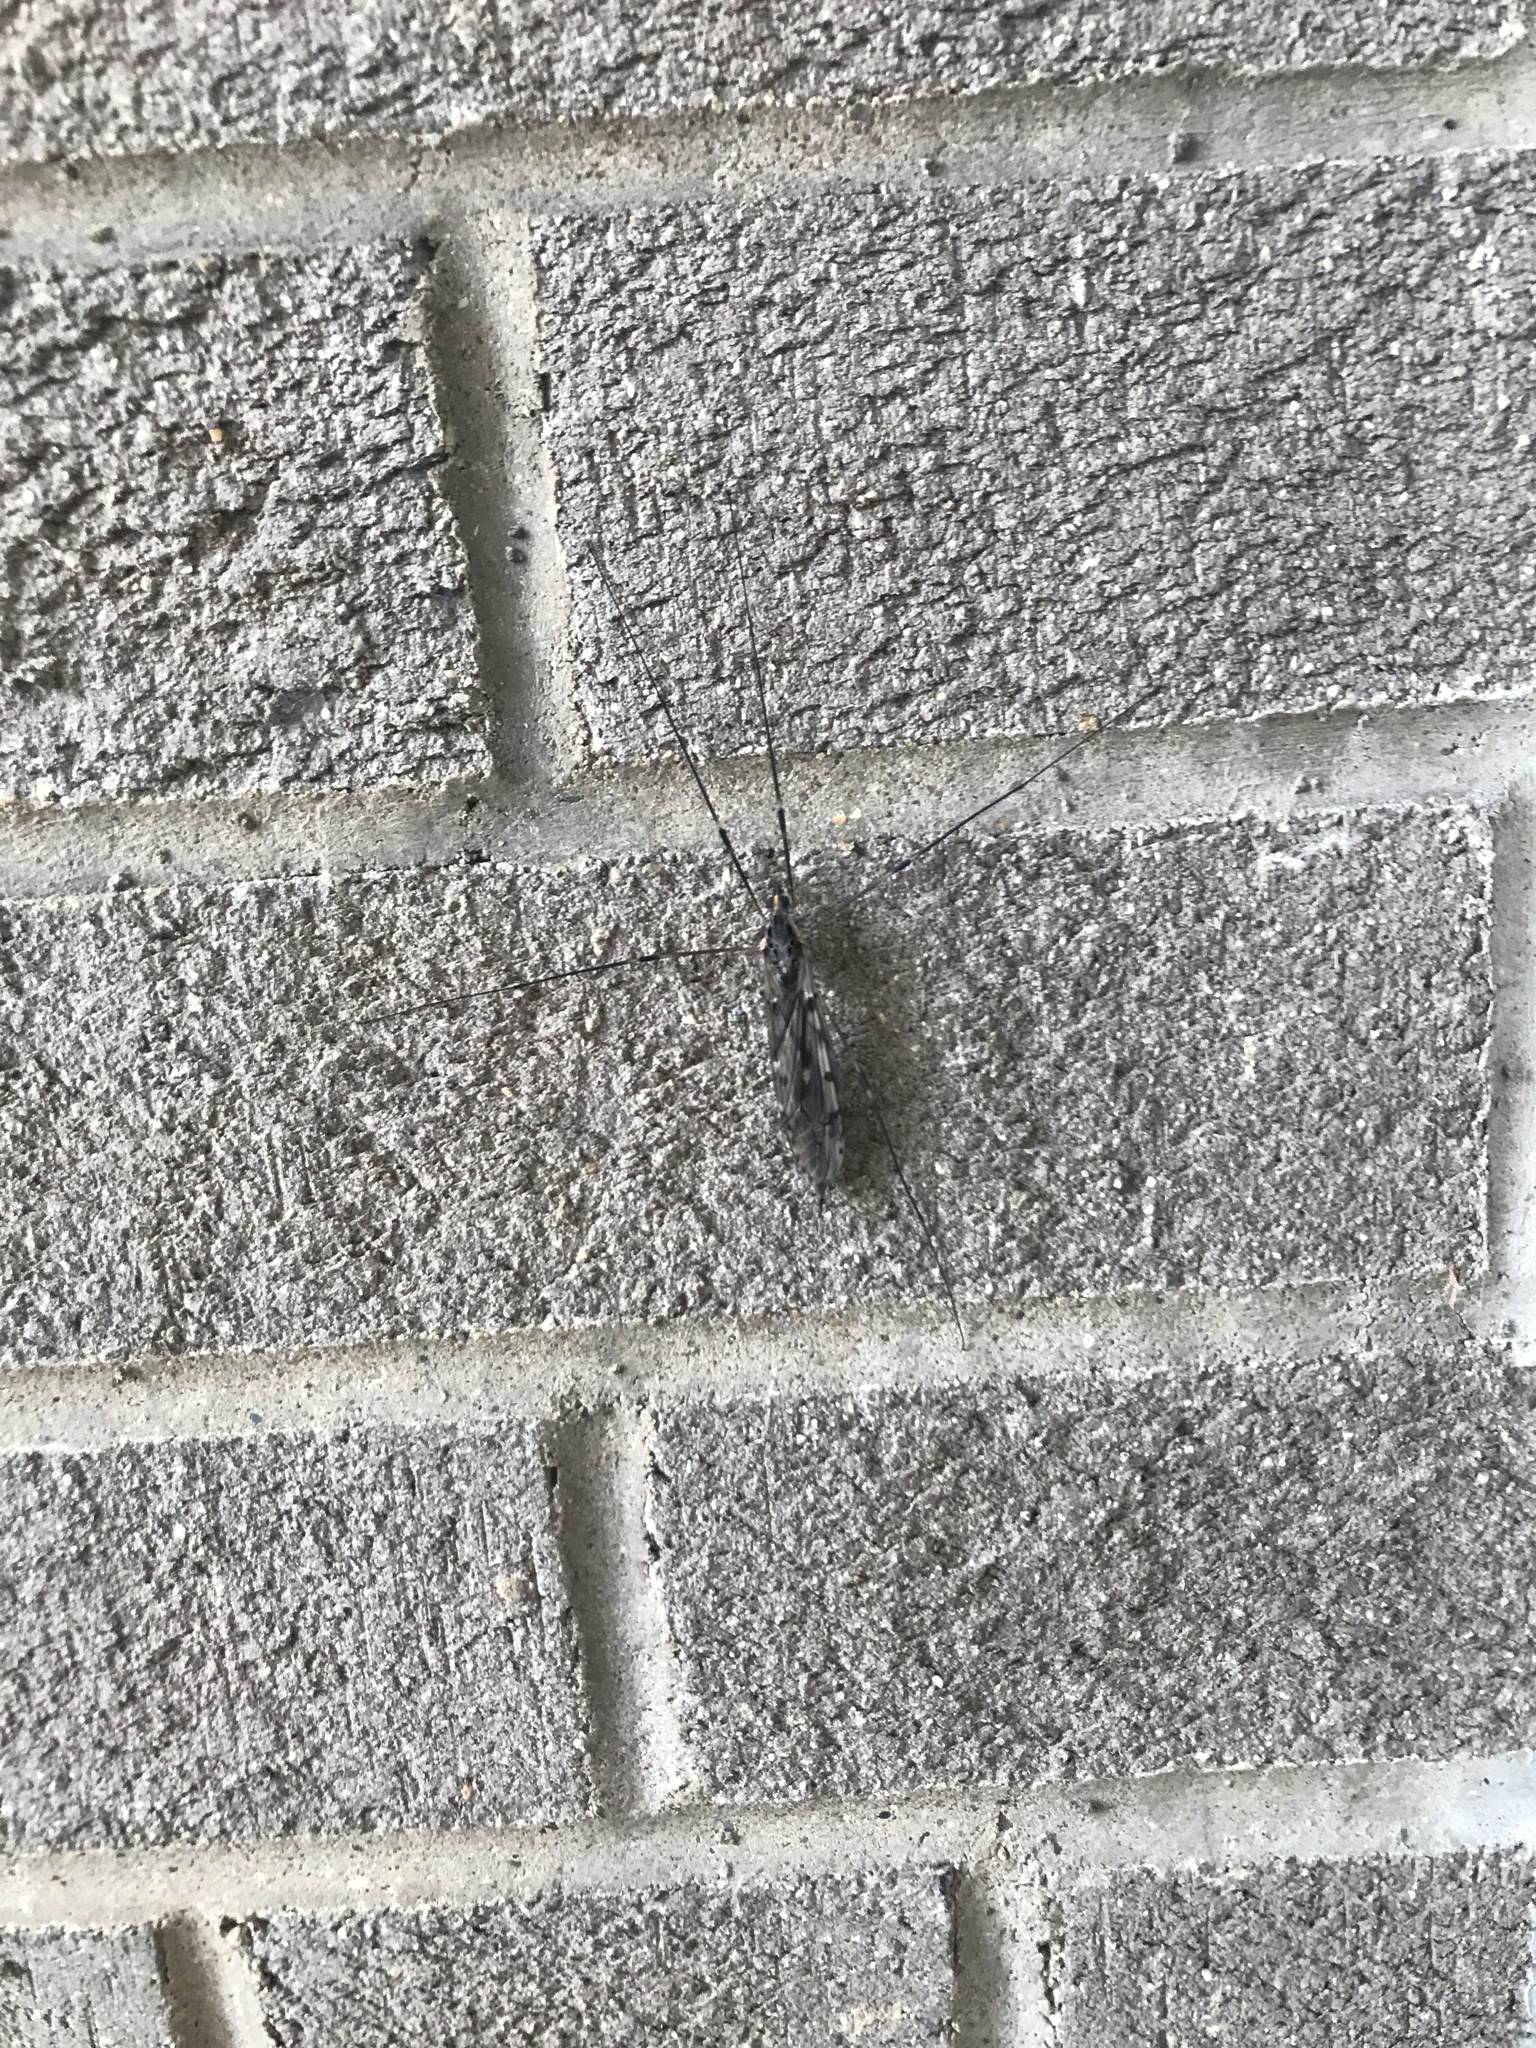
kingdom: Animalia
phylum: Arthropoda
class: Insecta
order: Diptera
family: Tipulidae
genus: Tipula
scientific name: Tipula abdominalis
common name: Giant crane fly
